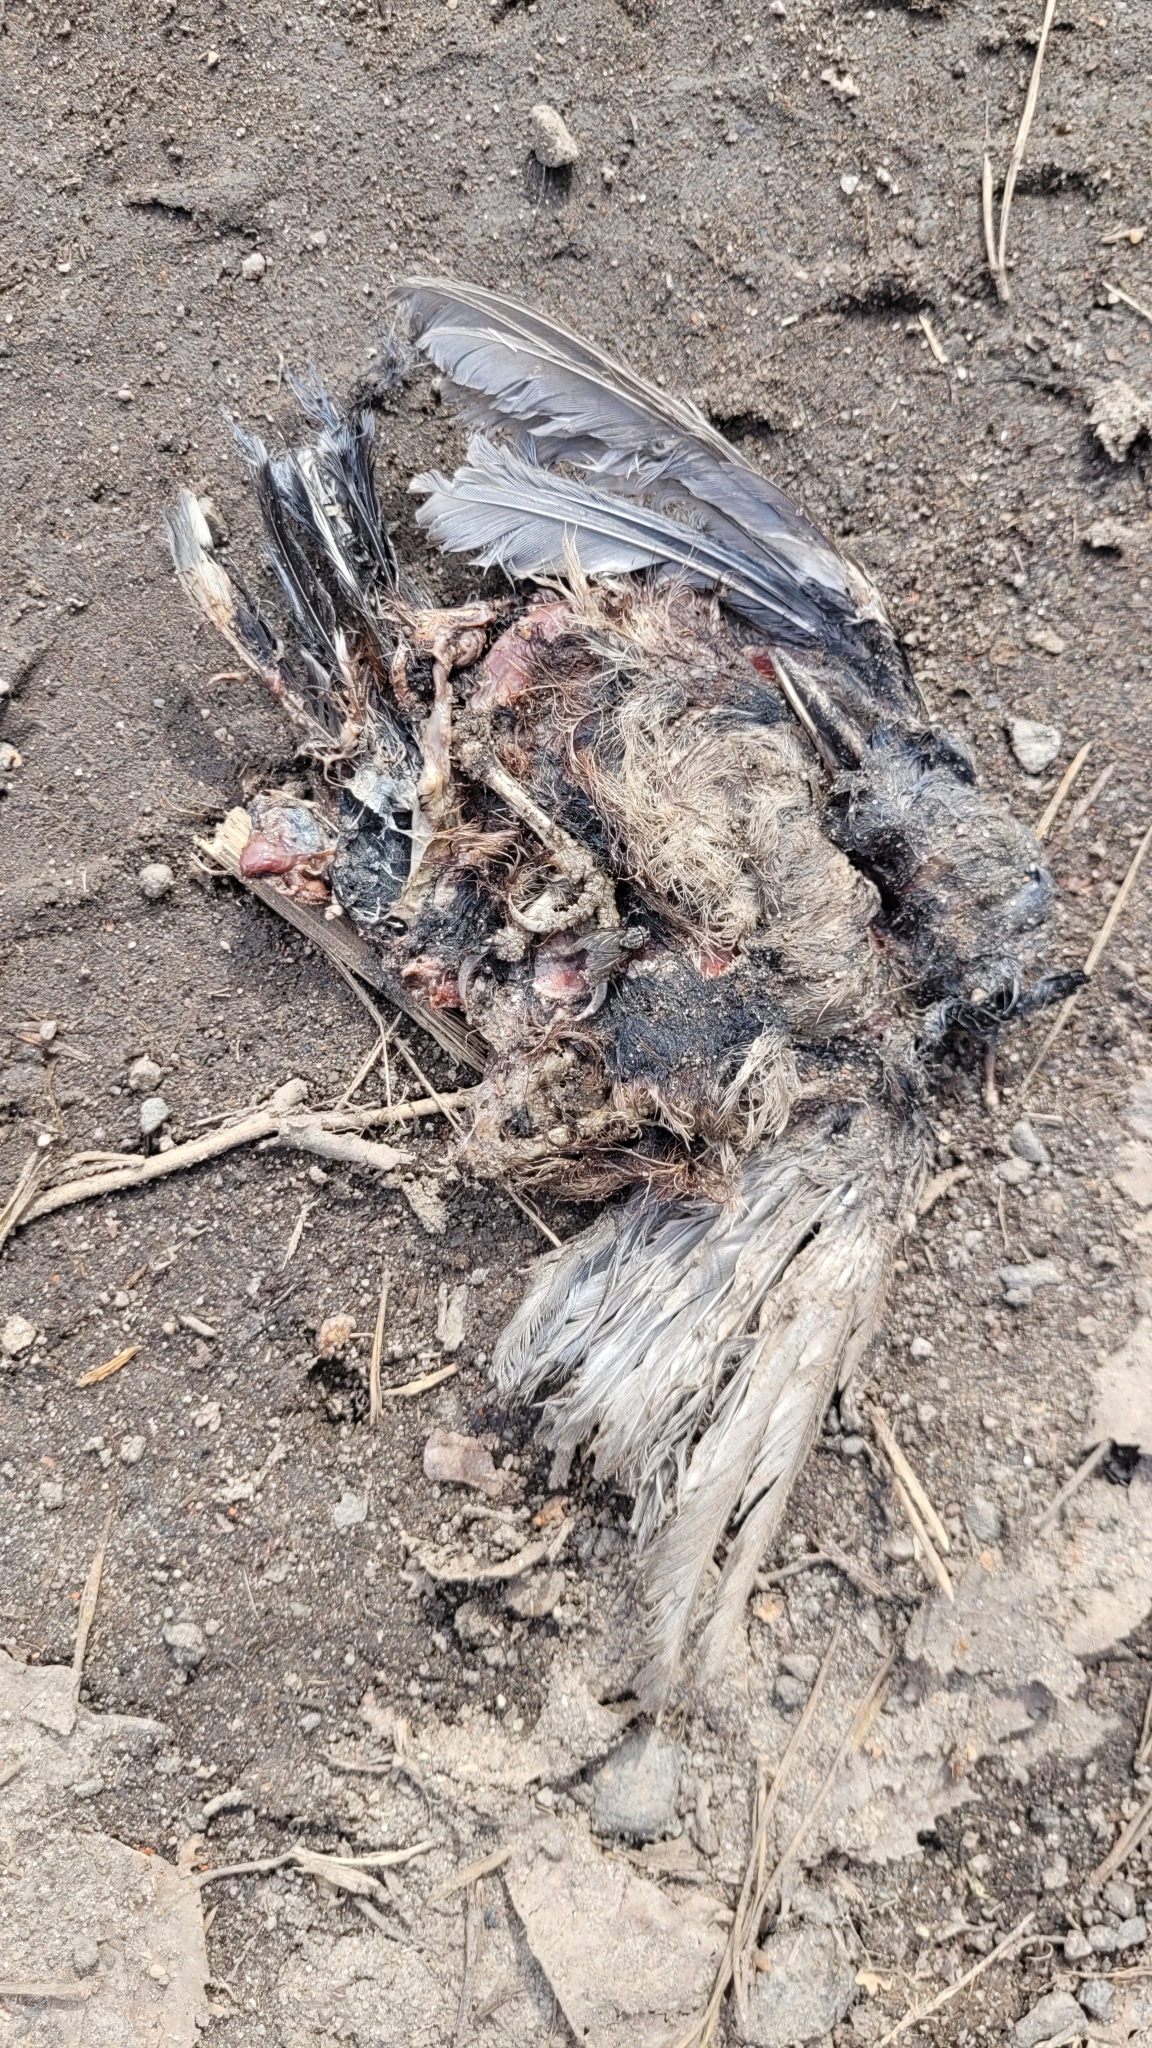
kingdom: Animalia
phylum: Chordata
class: Aves
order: Passeriformes
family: Sittidae
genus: Sitta
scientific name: Sitta europaea
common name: Eurasian nuthatch
